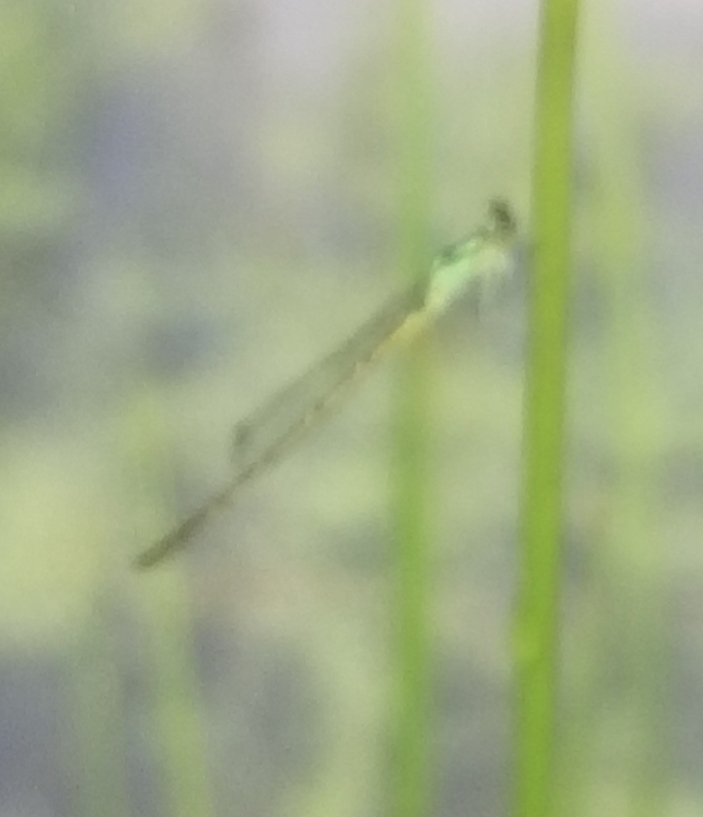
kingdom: Animalia
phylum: Arthropoda
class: Insecta
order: Odonata
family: Coenagrionidae
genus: Ischnura
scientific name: Ischnura posita
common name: Fragile forktail
